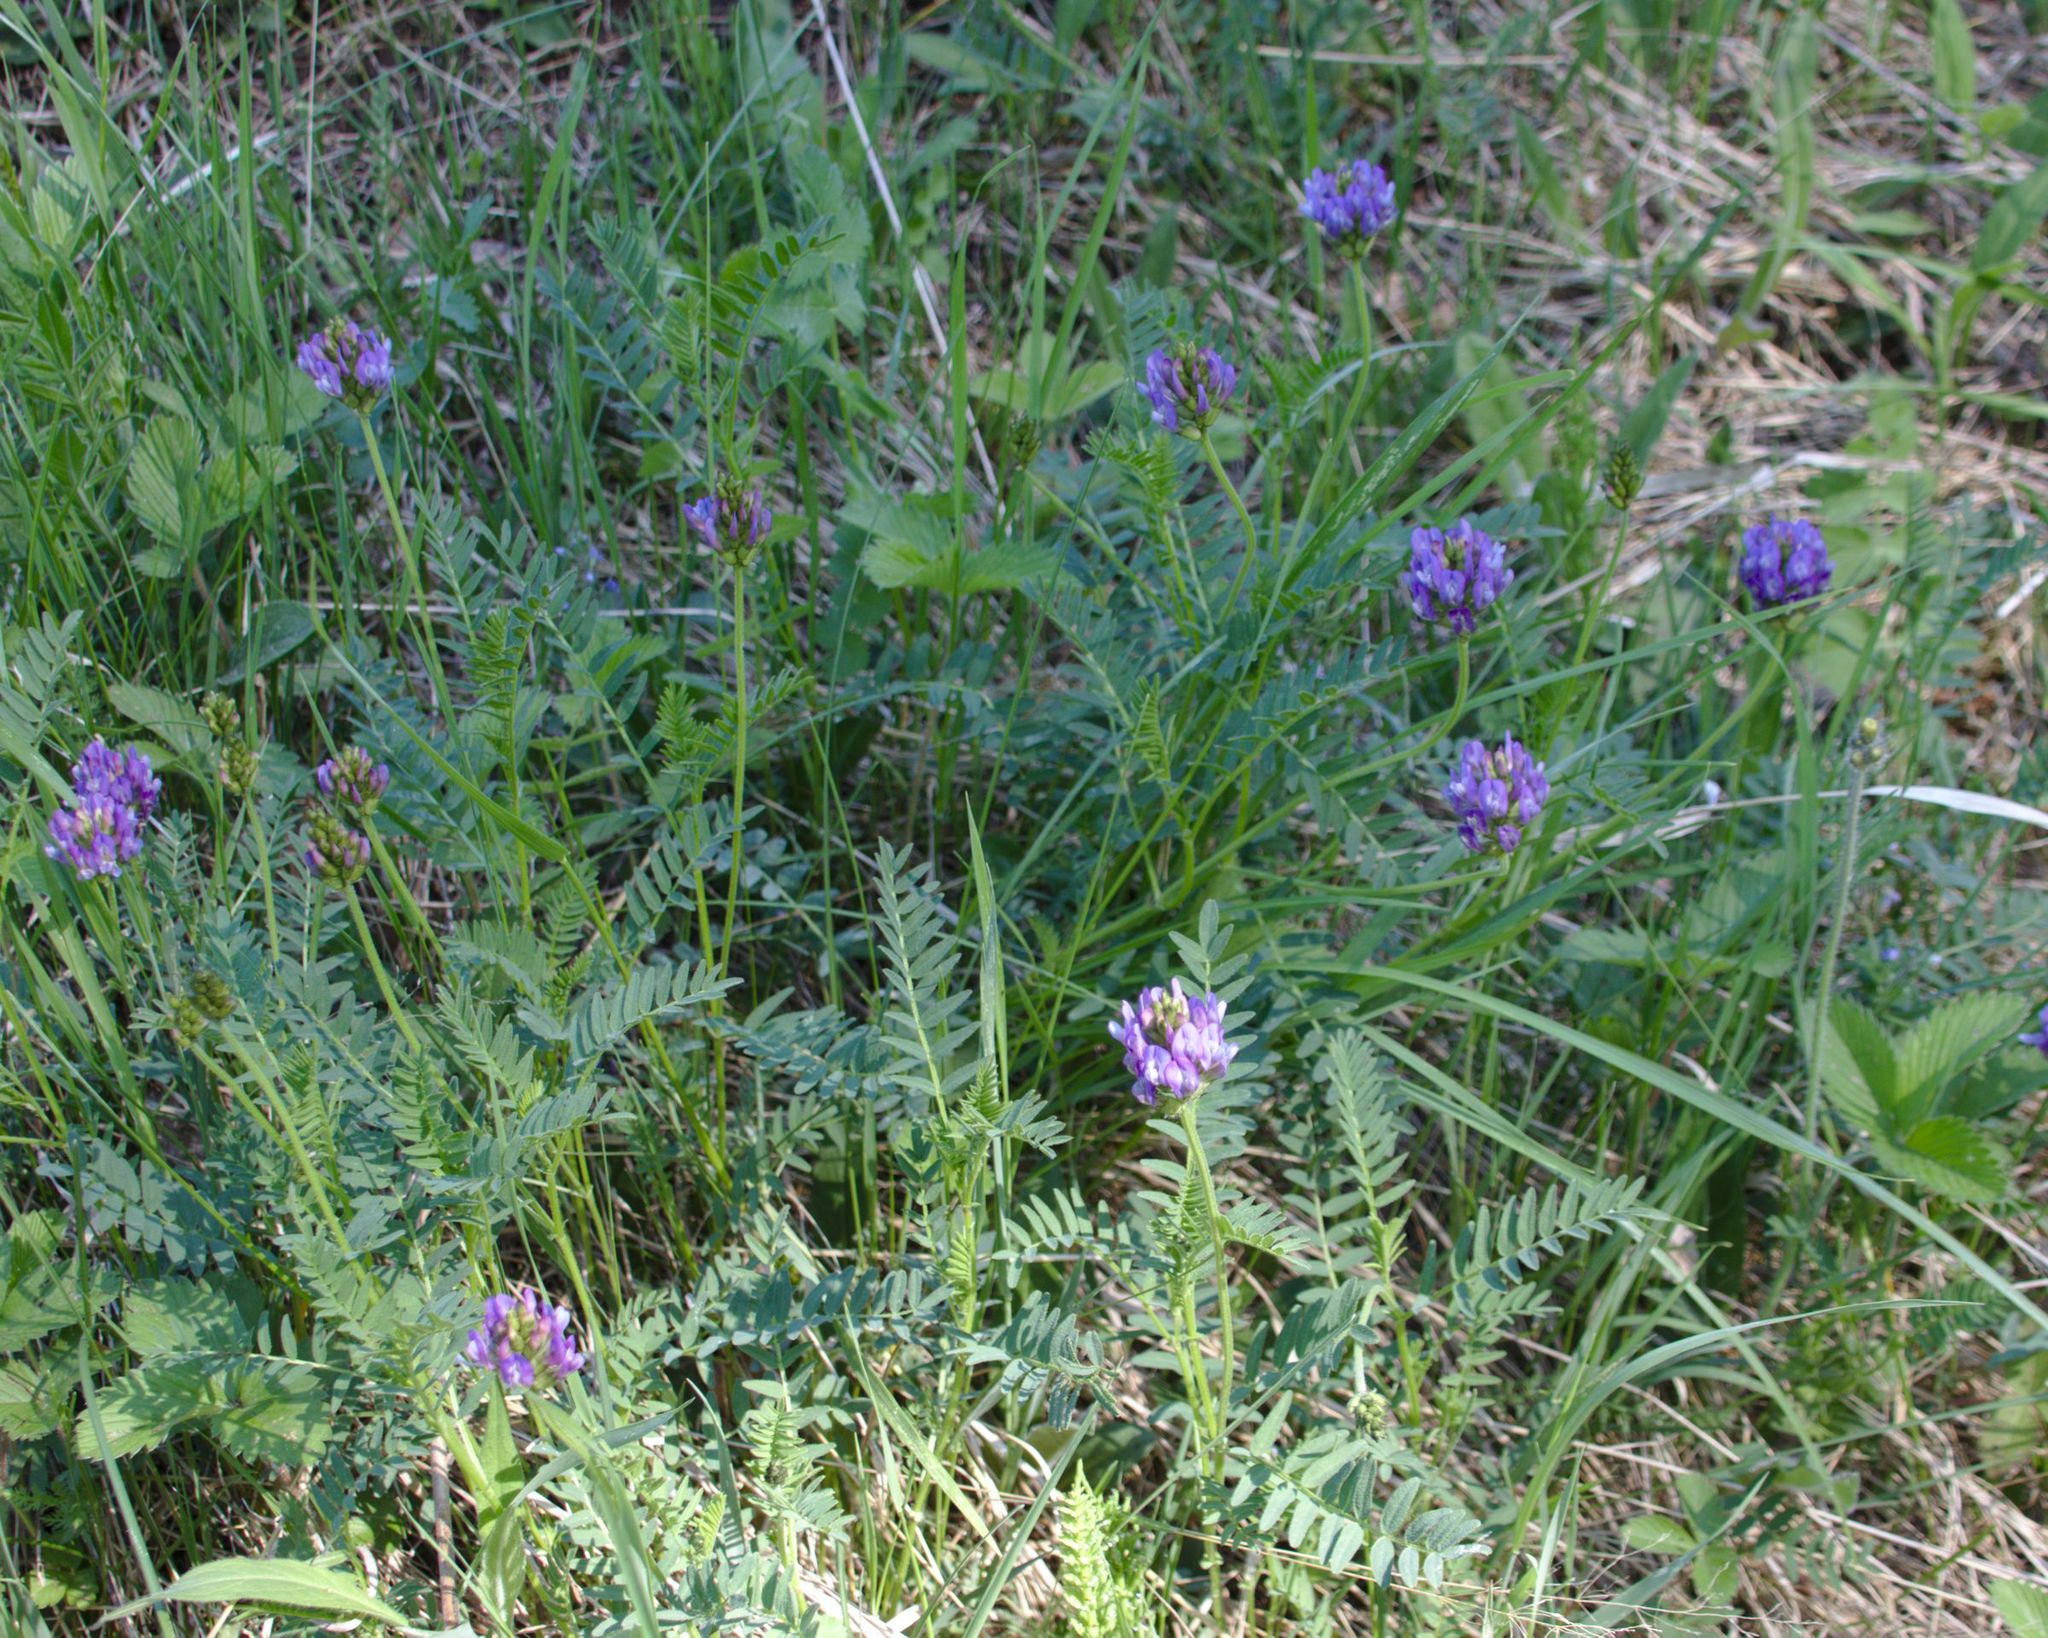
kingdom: Plantae
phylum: Tracheophyta
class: Magnoliopsida
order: Fabales
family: Fabaceae
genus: Astragalus
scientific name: Astragalus danicus
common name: Purple milk-vetch
